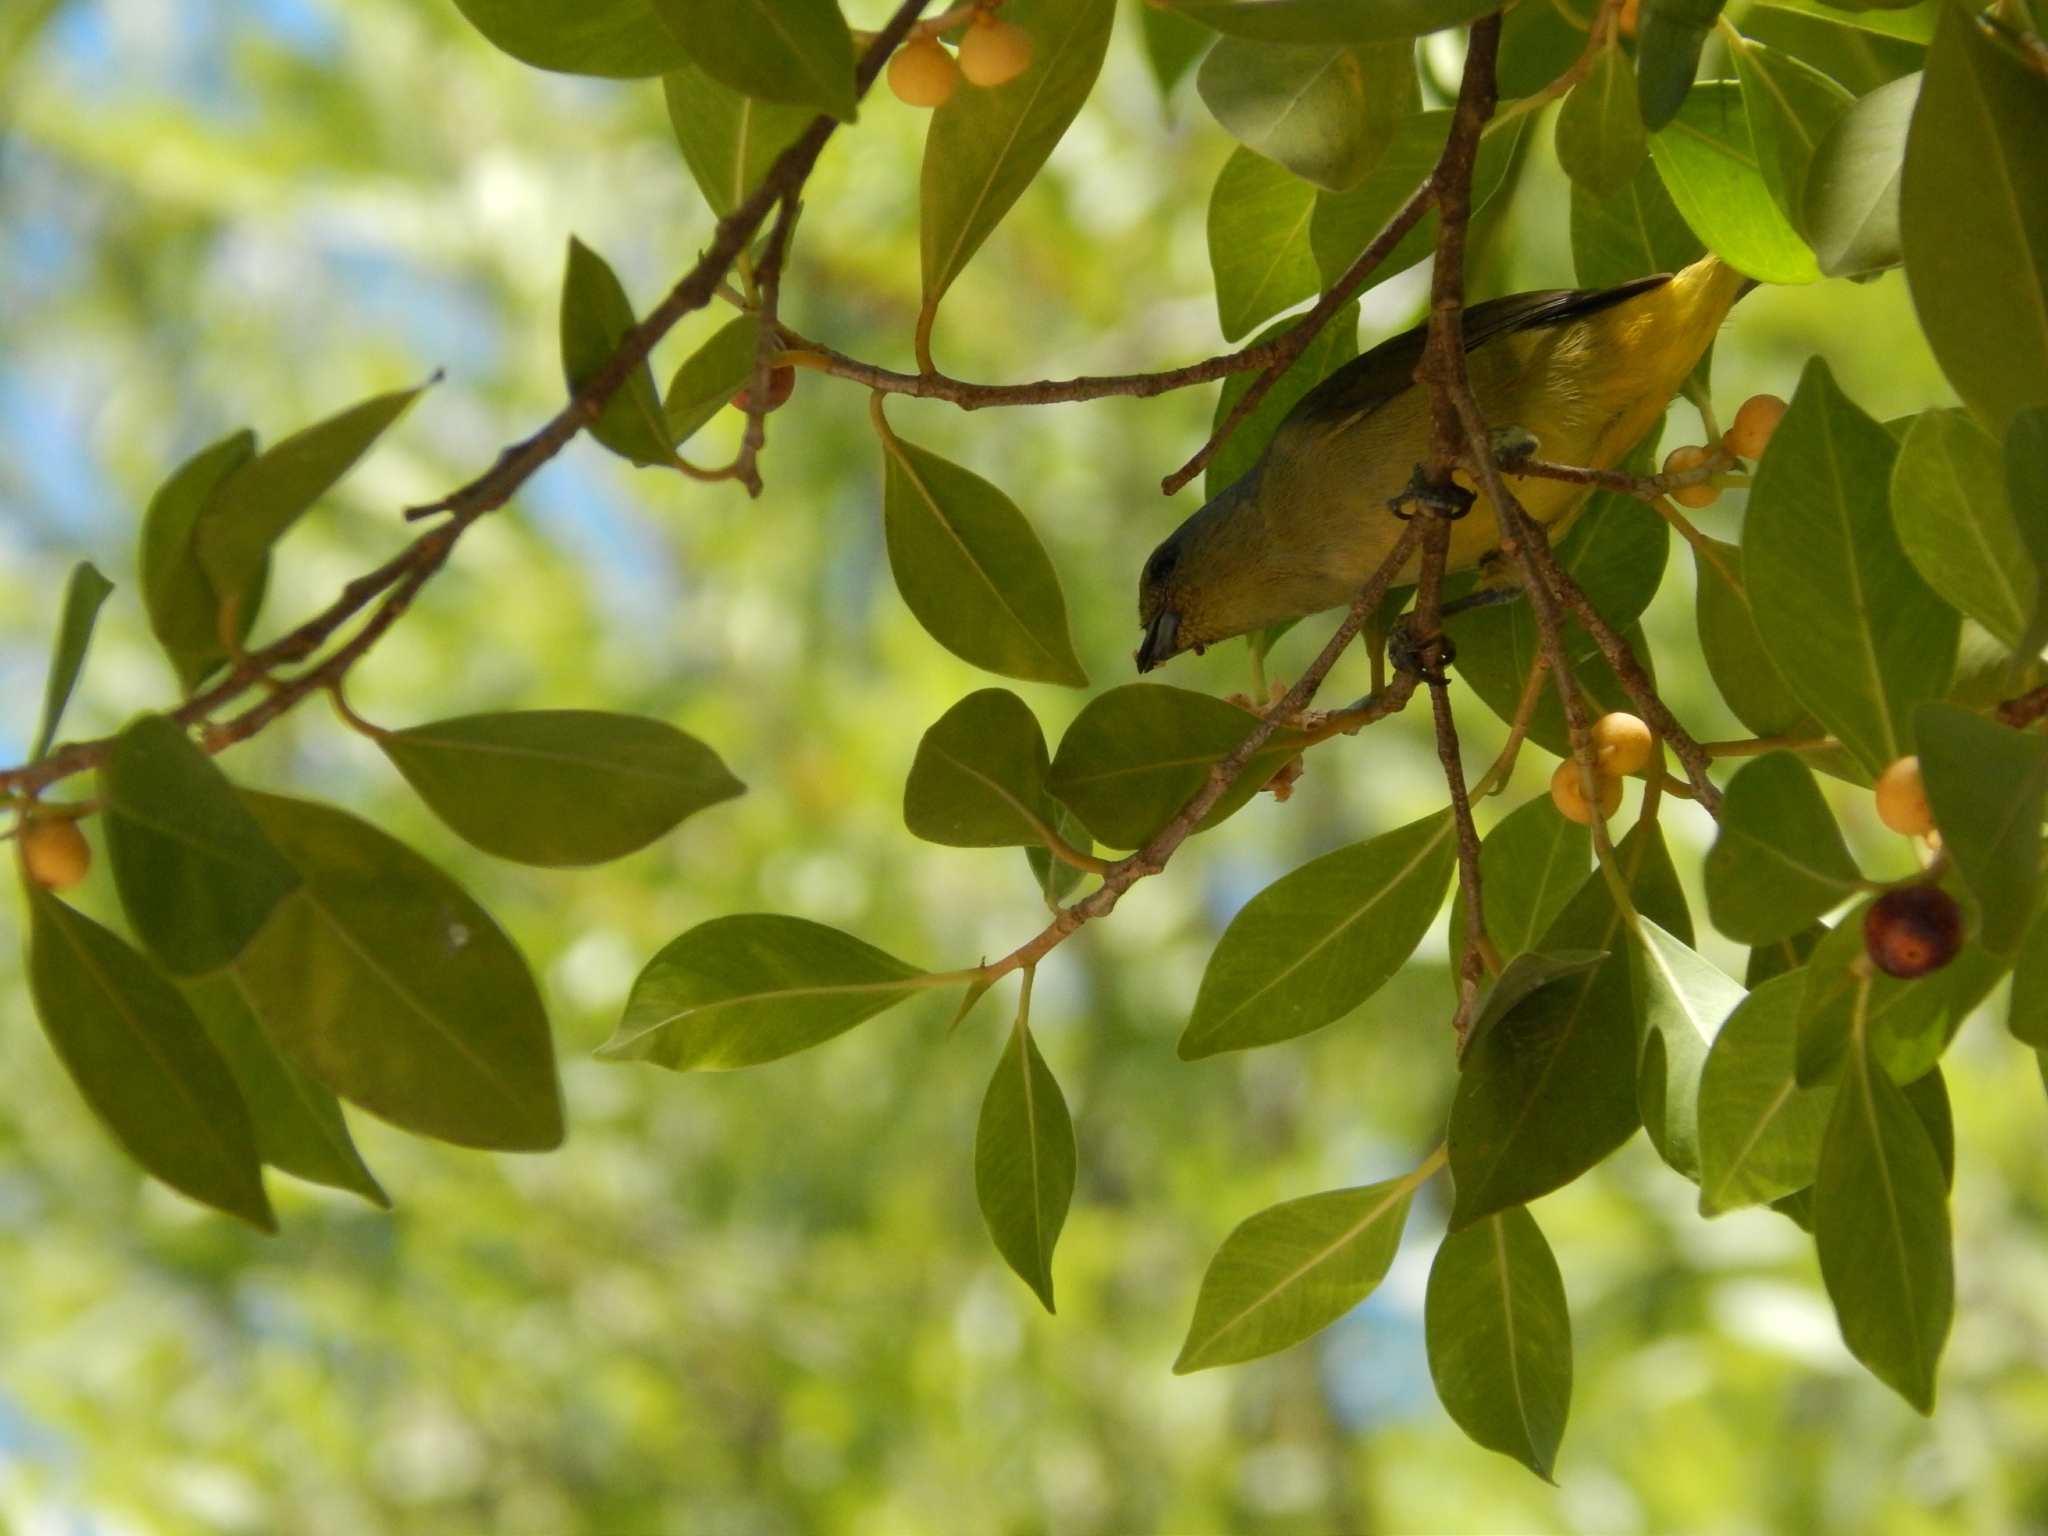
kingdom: Animalia
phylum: Chordata
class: Aves
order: Passeriformes
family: Fringillidae
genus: Euphonia
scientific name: Euphonia affinis
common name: Scrub euphonia
